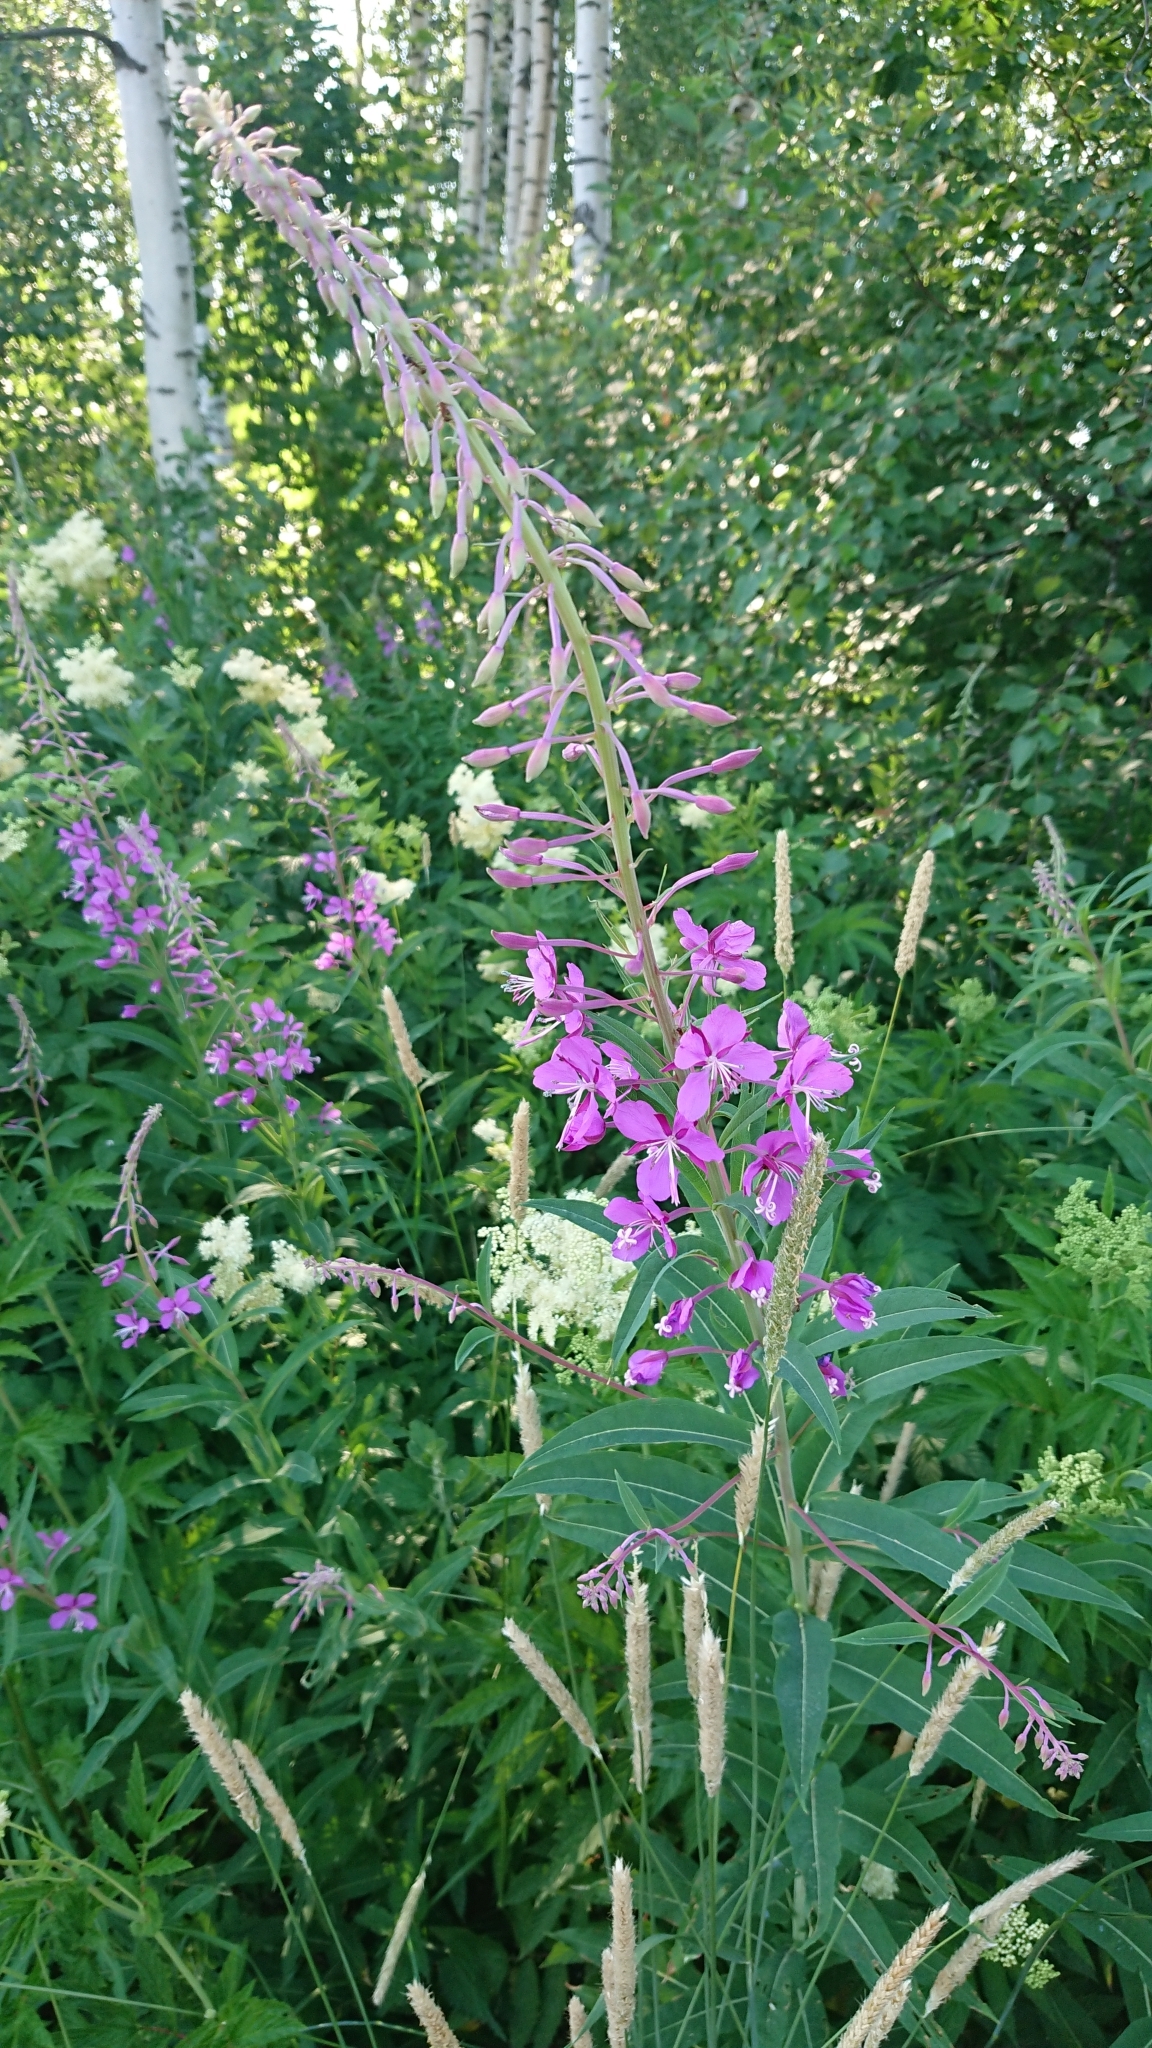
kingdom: Plantae
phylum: Tracheophyta
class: Magnoliopsida
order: Myrtales
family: Onagraceae
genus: Chamaenerion
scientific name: Chamaenerion angustifolium
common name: Fireweed
